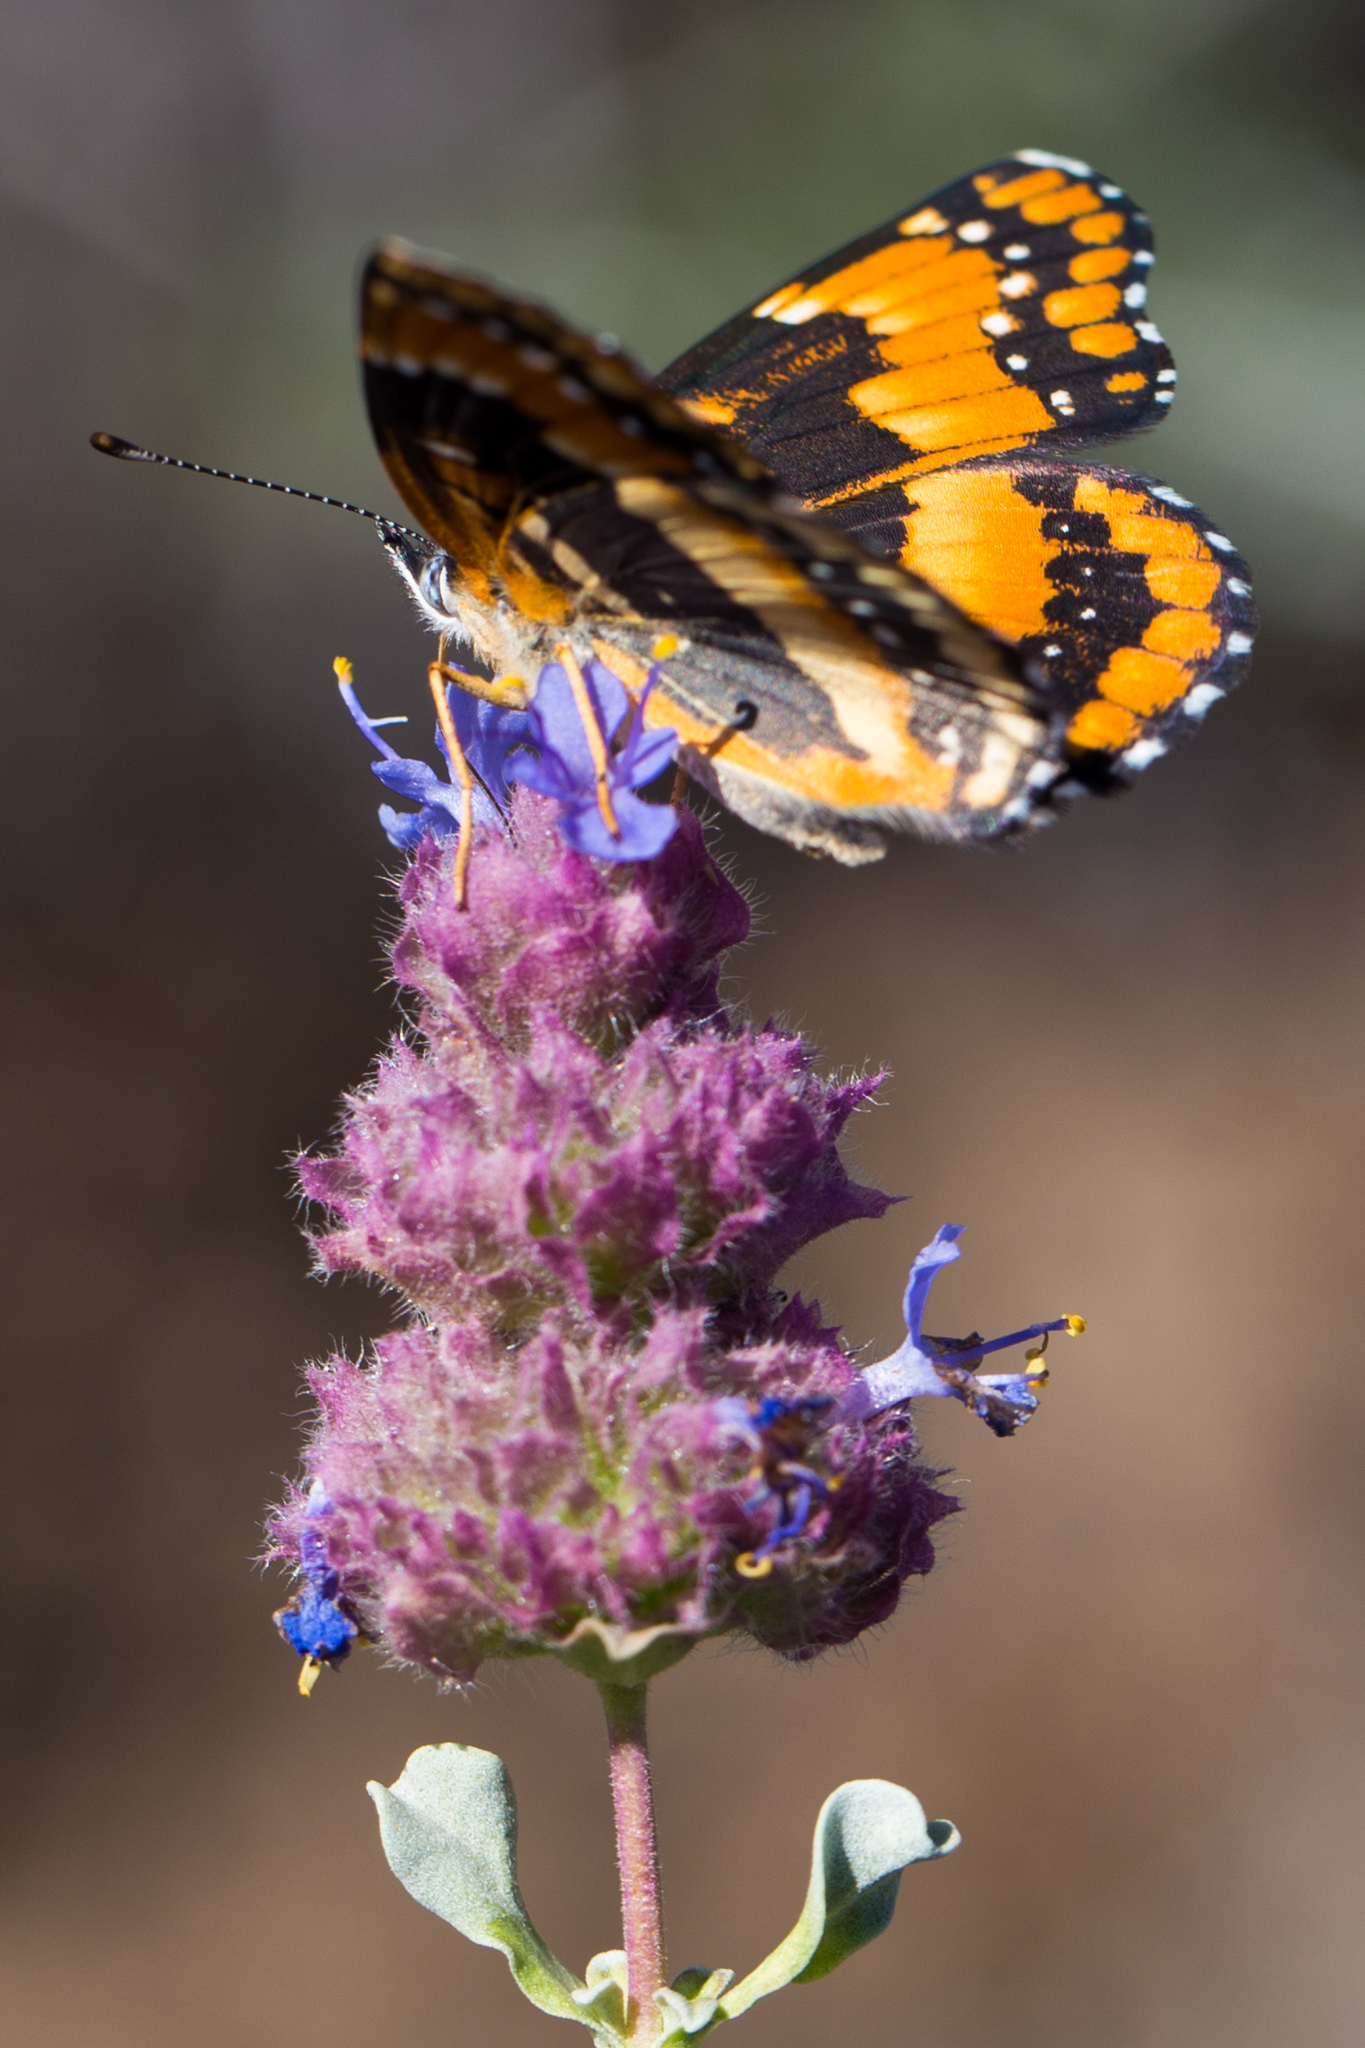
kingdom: Animalia
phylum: Arthropoda
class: Insecta
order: Lepidoptera
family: Nymphalidae
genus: Chlosyne
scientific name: Chlosyne californica
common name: California patch
